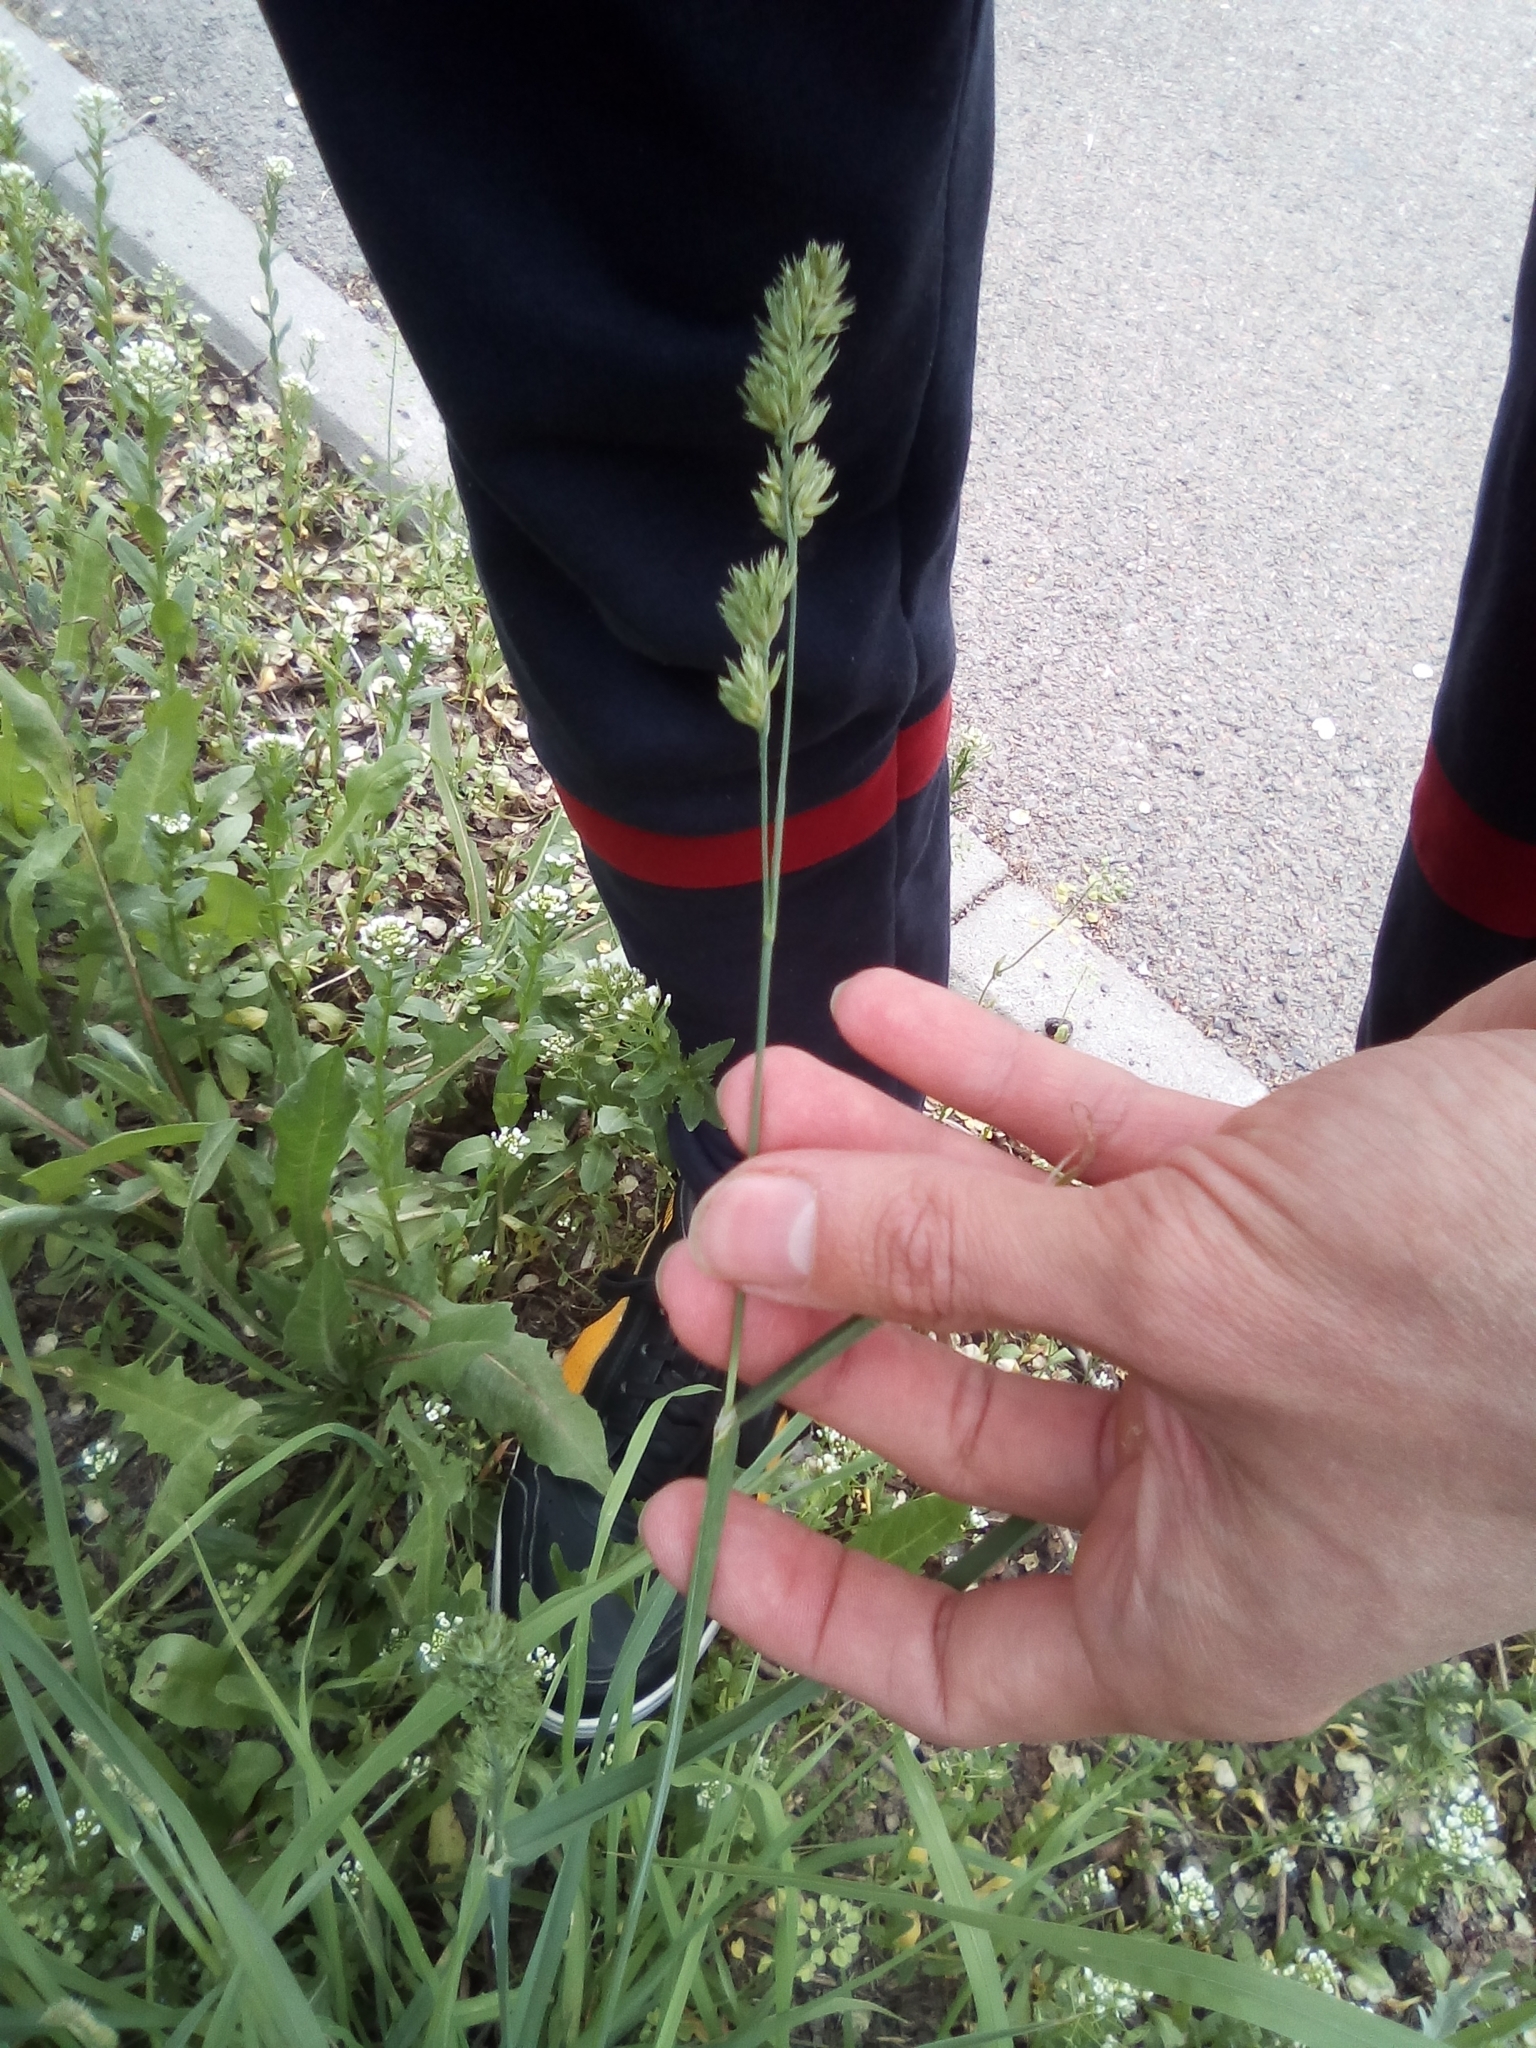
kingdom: Plantae
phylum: Tracheophyta
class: Liliopsida
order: Poales
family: Poaceae
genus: Dactylis
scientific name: Dactylis glomerata
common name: Orchardgrass
